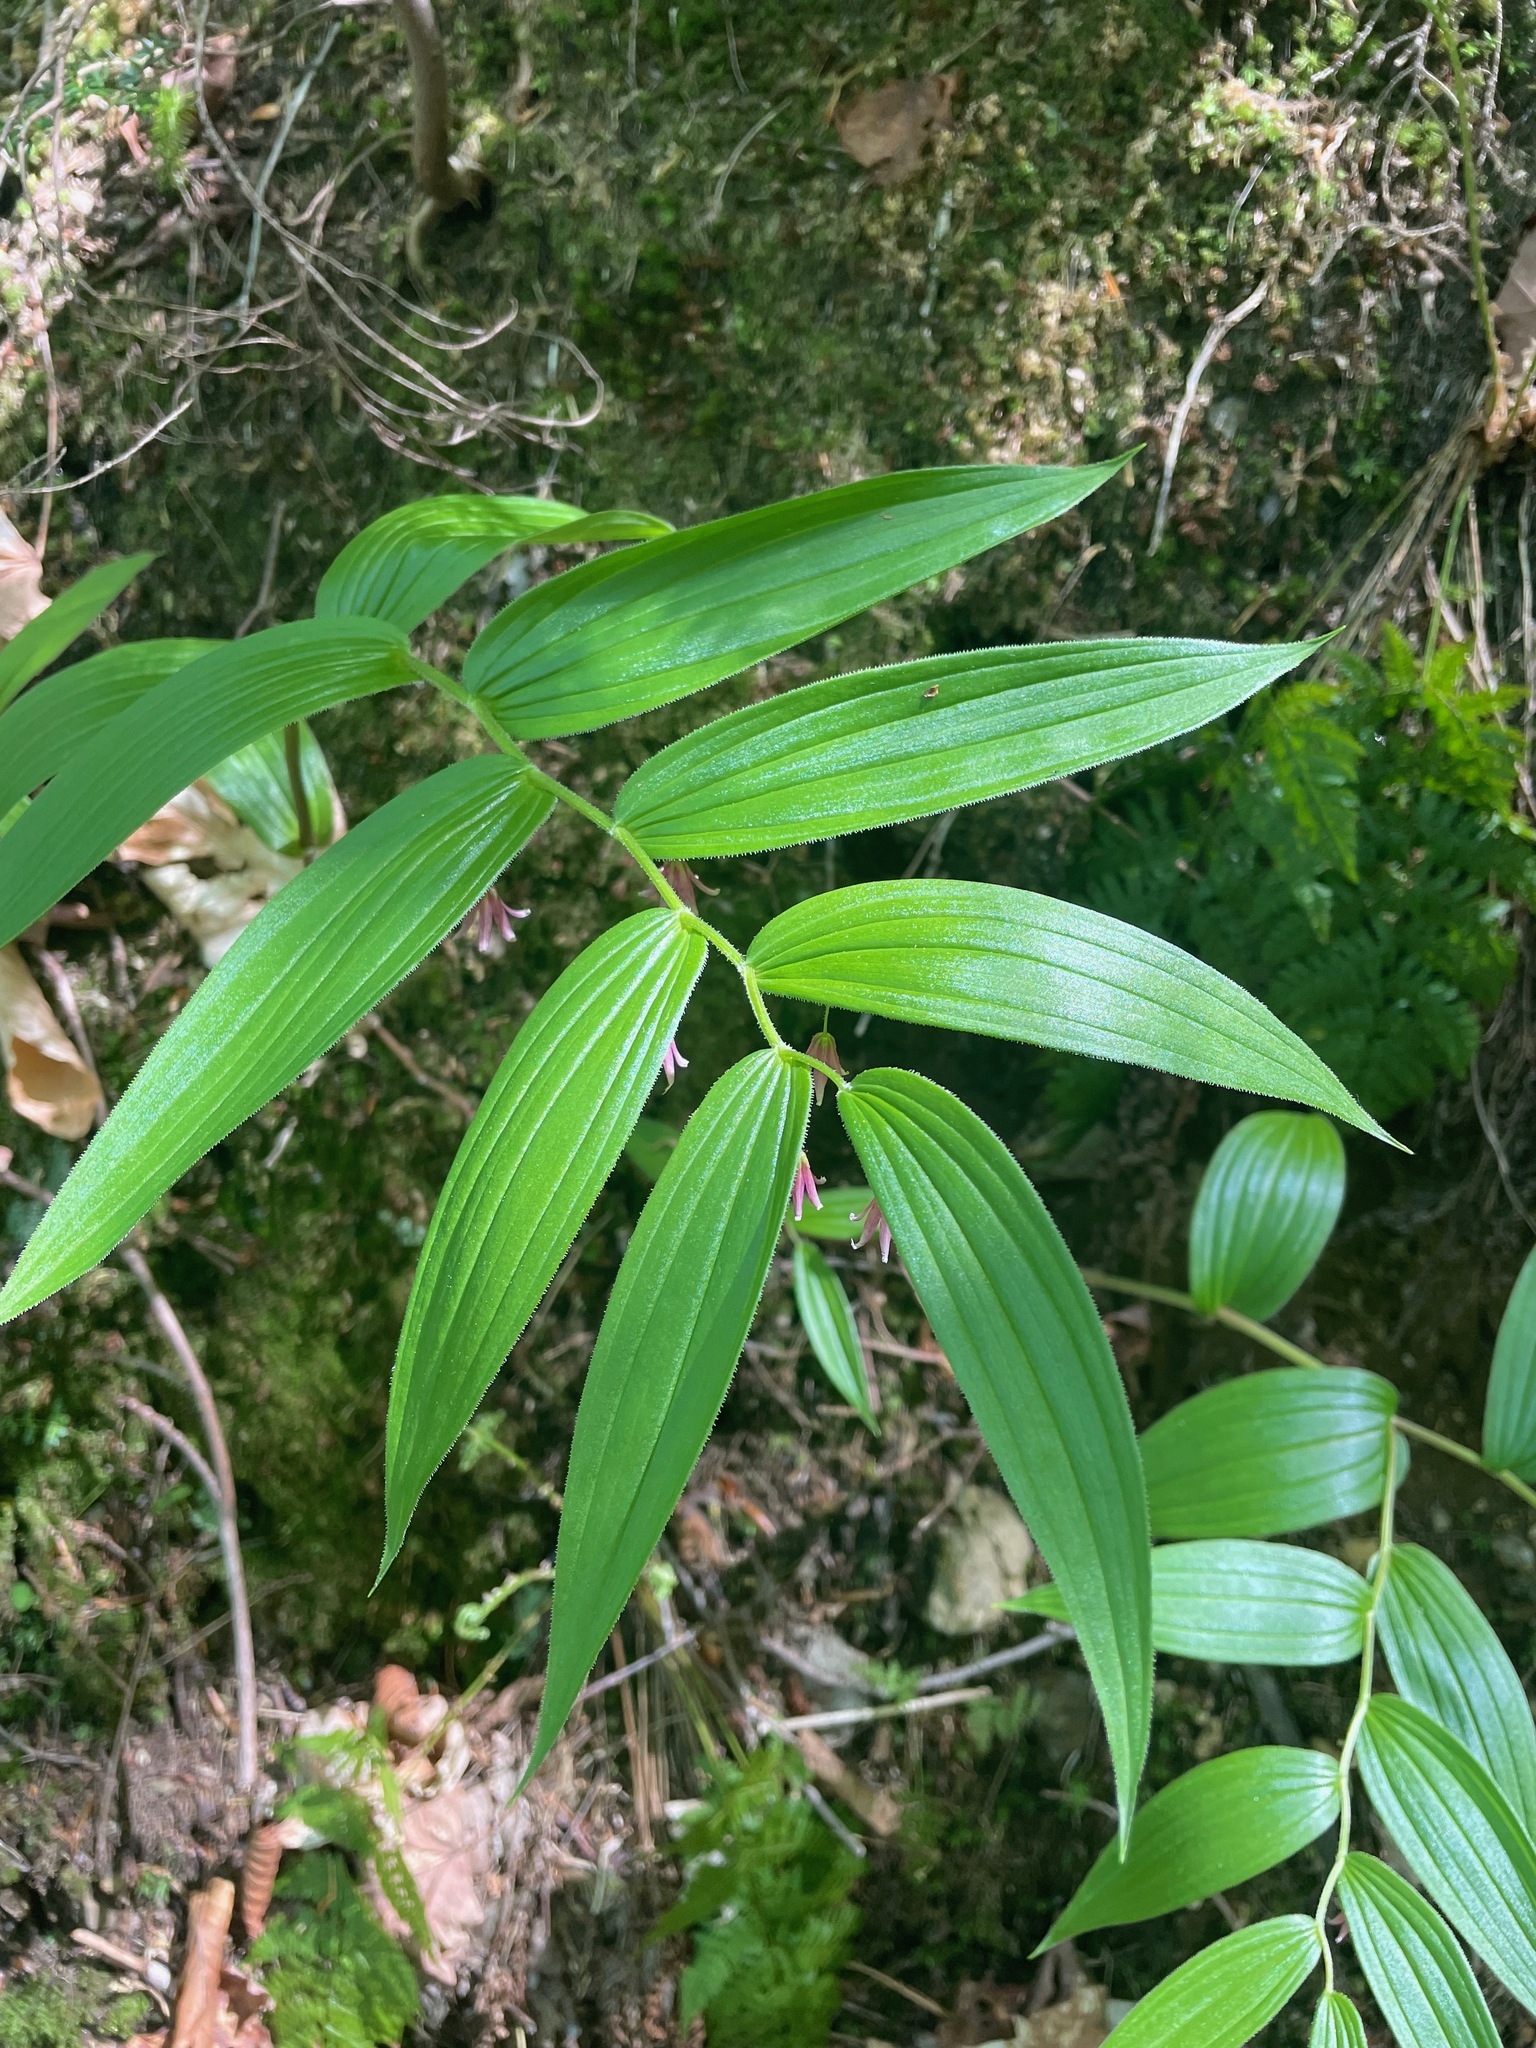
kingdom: Plantae
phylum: Tracheophyta
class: Liliopsida
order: Liliales
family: Liliaceae
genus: Streptopus
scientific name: Streptopus lanceolatus
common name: Rose mandarin
